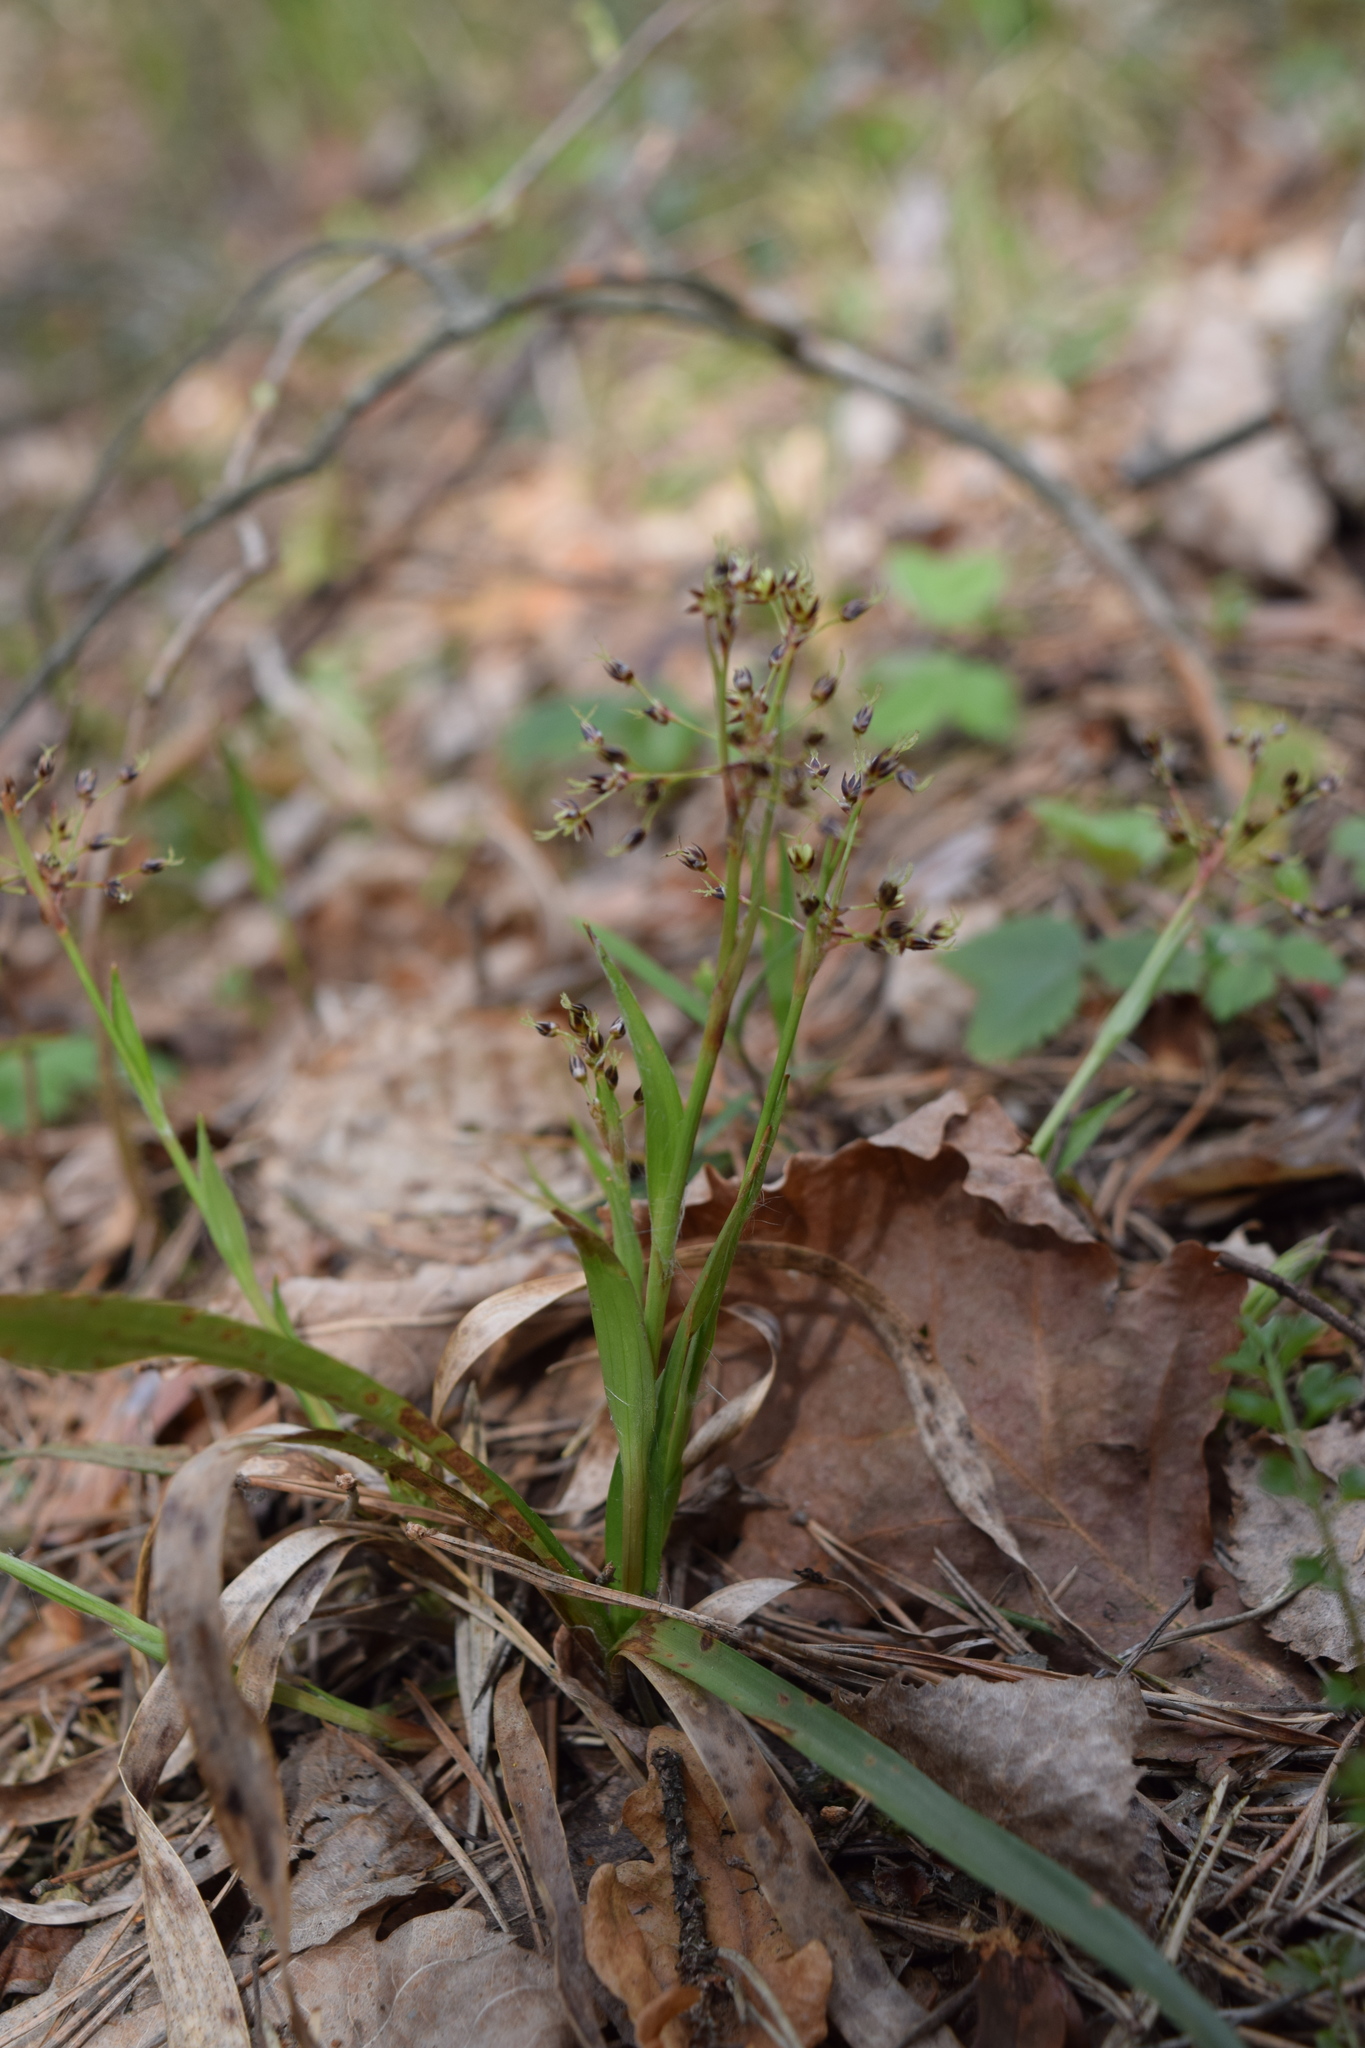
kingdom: Plantae
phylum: Tracheophyta
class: Liliopsida
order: Poales
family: Juncaceae
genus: Luzula
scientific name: Luzula pilosa
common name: Hairy wood-rush
